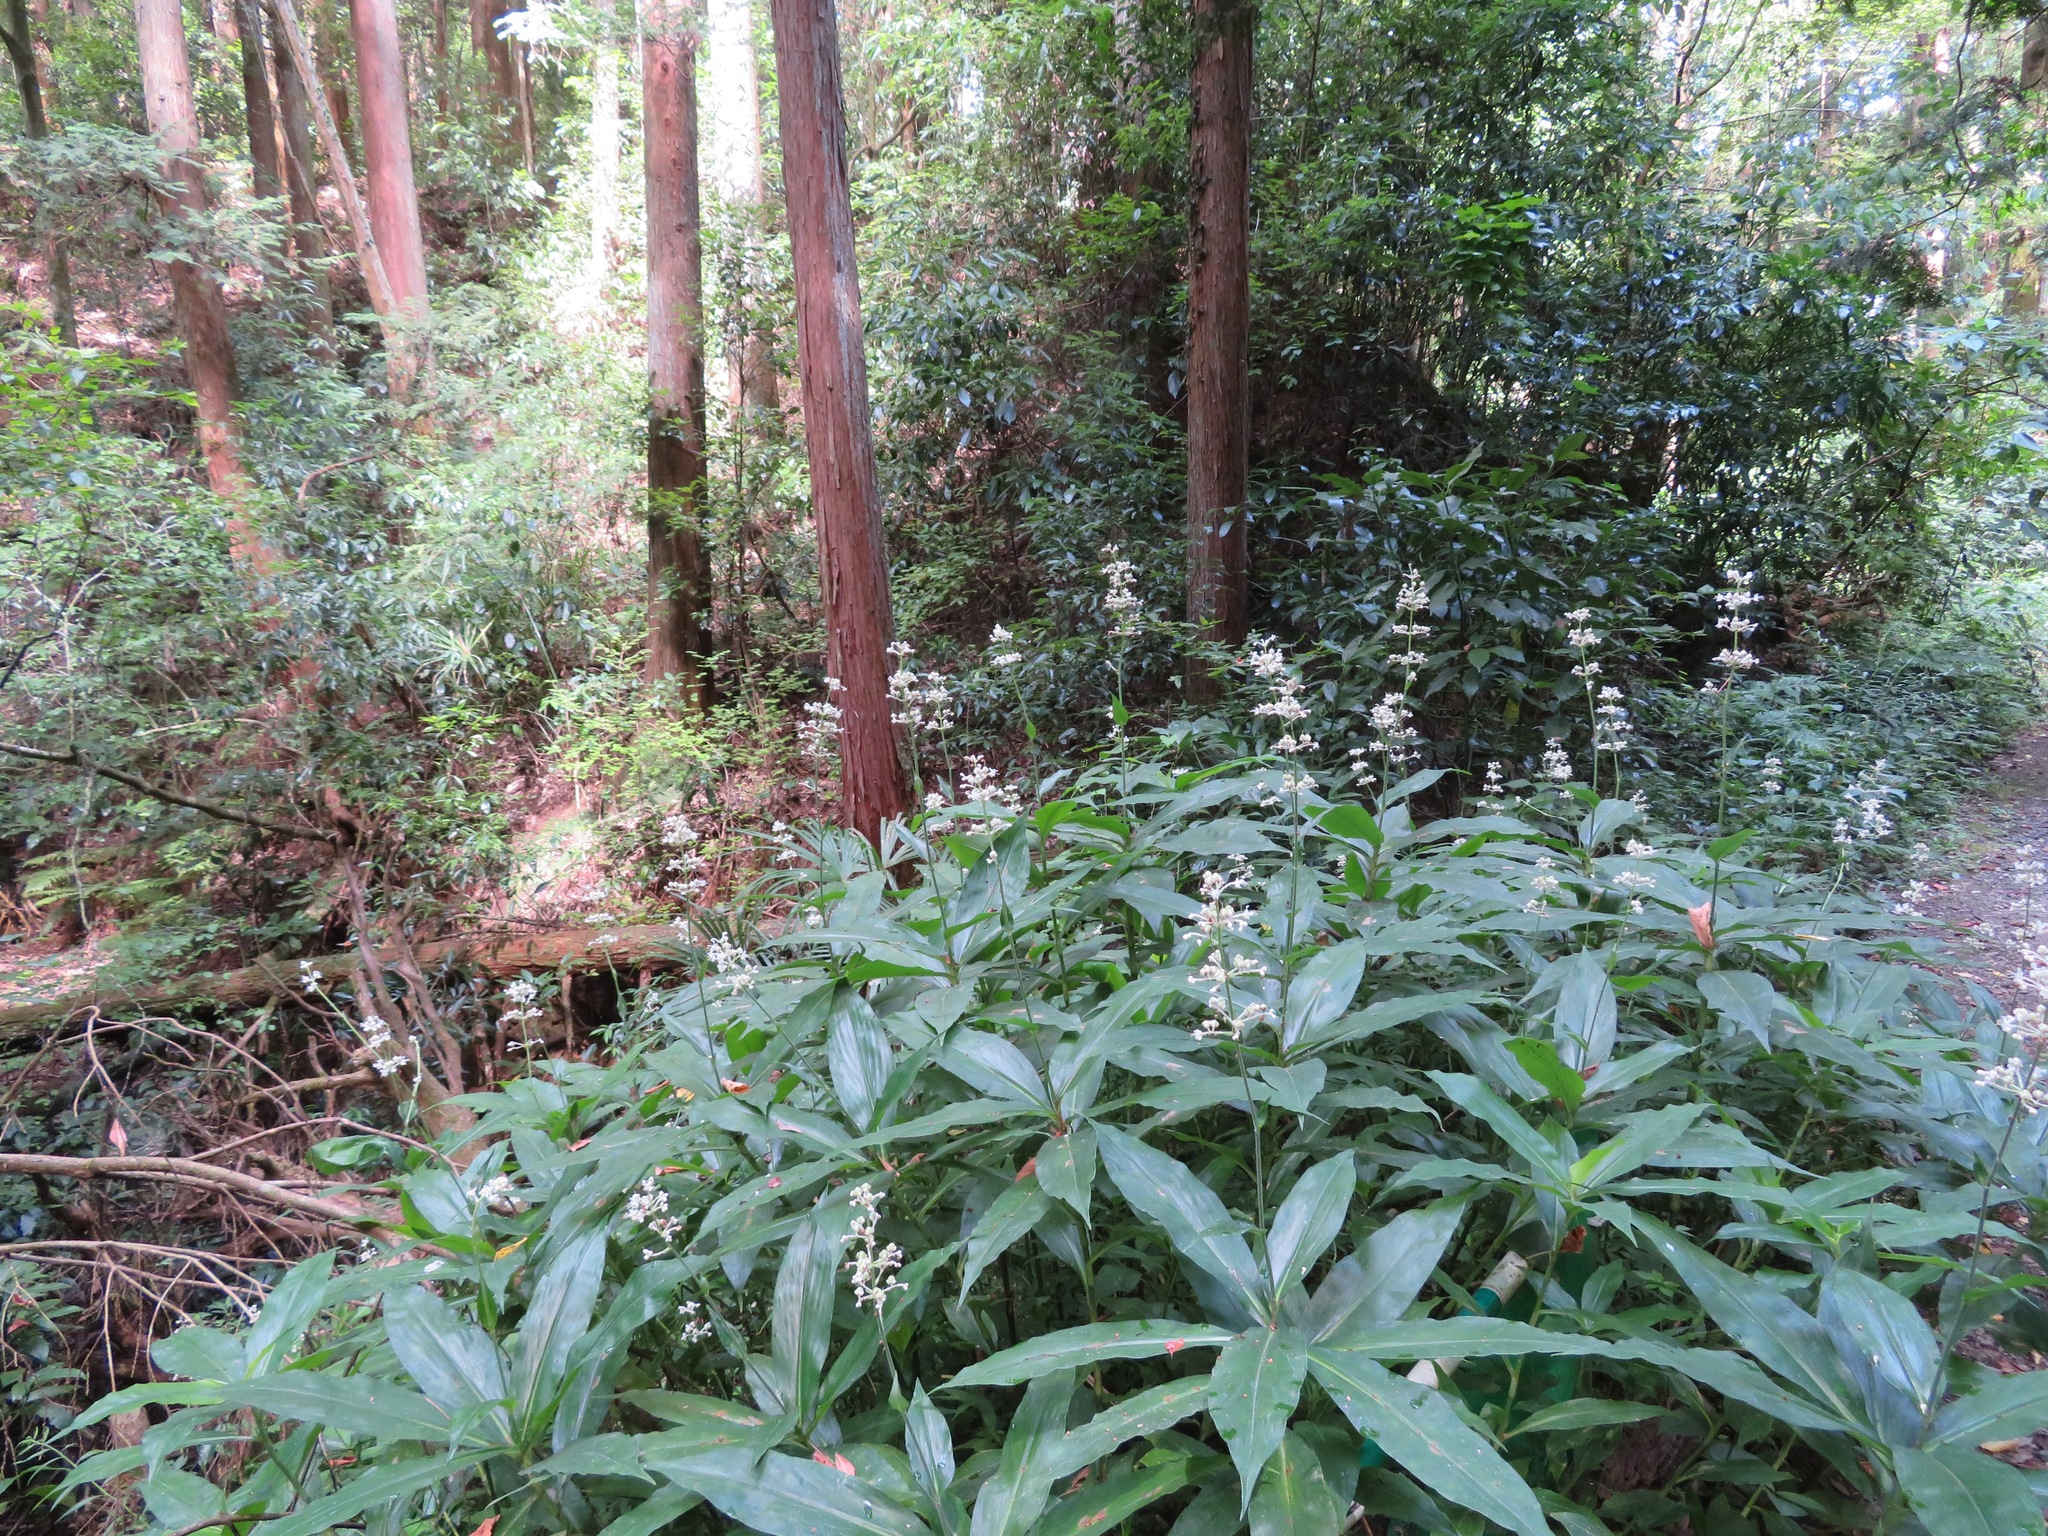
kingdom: Plantae
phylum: Tracheophyta
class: Liliopsida
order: Commelinales
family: Commelinaceae
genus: Pollia
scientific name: Pollia japonica
